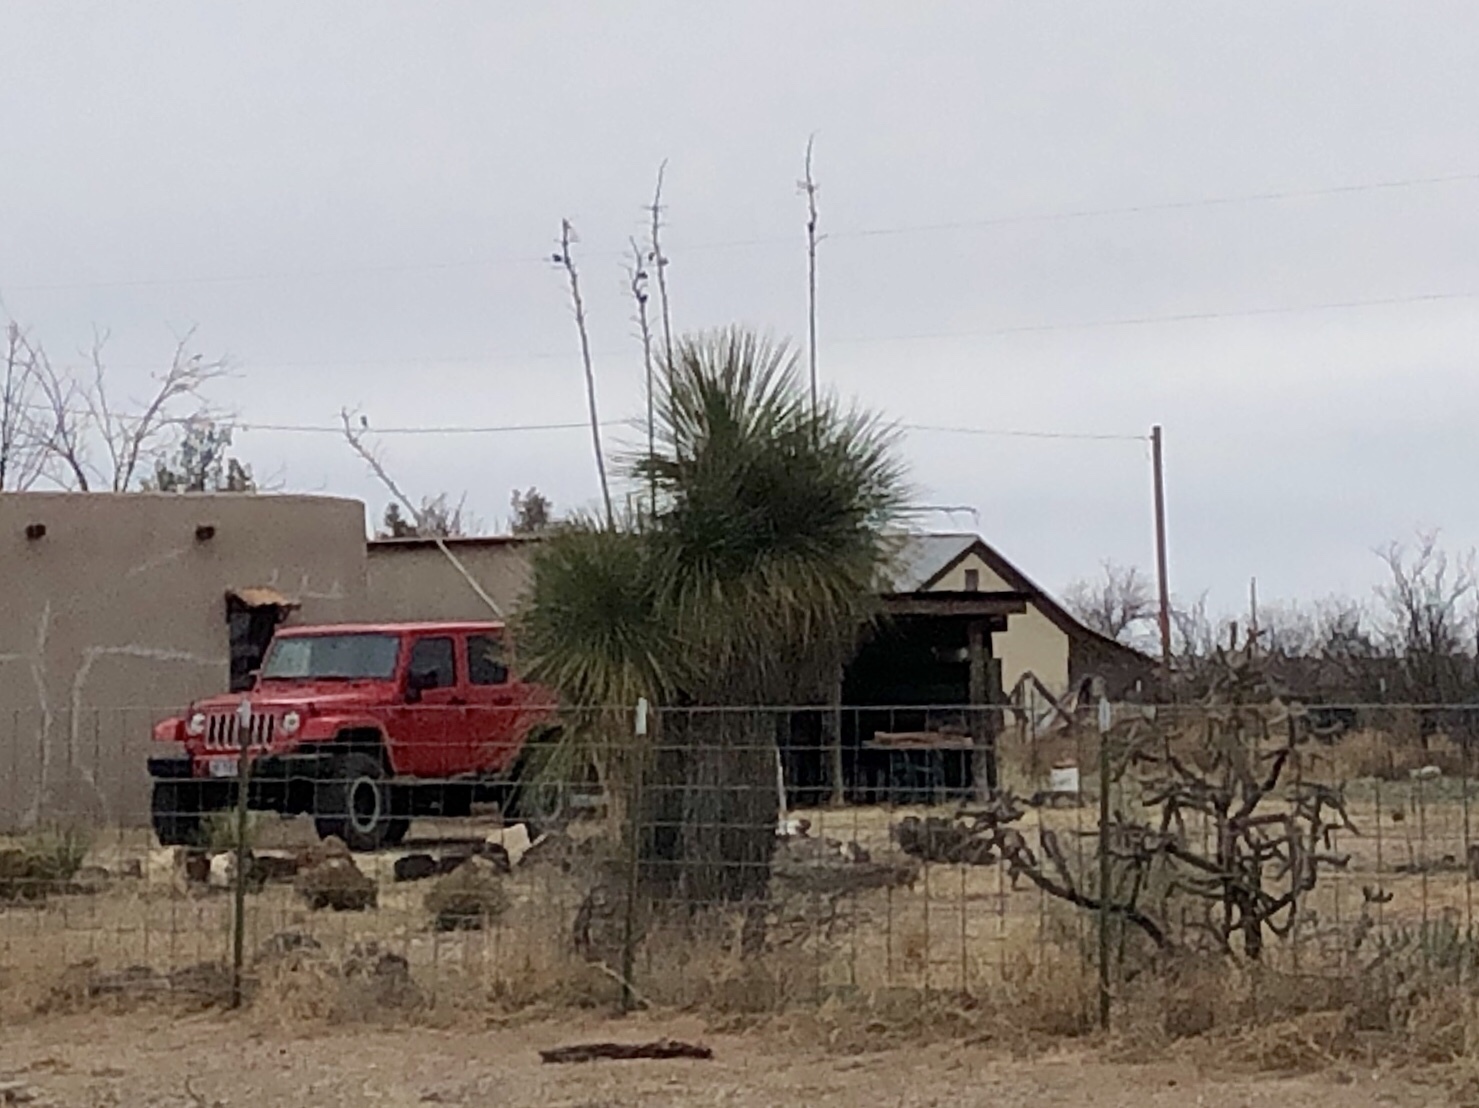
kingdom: Plantae
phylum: Tracheophyta
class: Liliopsida
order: Asparagales
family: Asparagaceae
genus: Yucca
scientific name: Yucca elata
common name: Palmella
